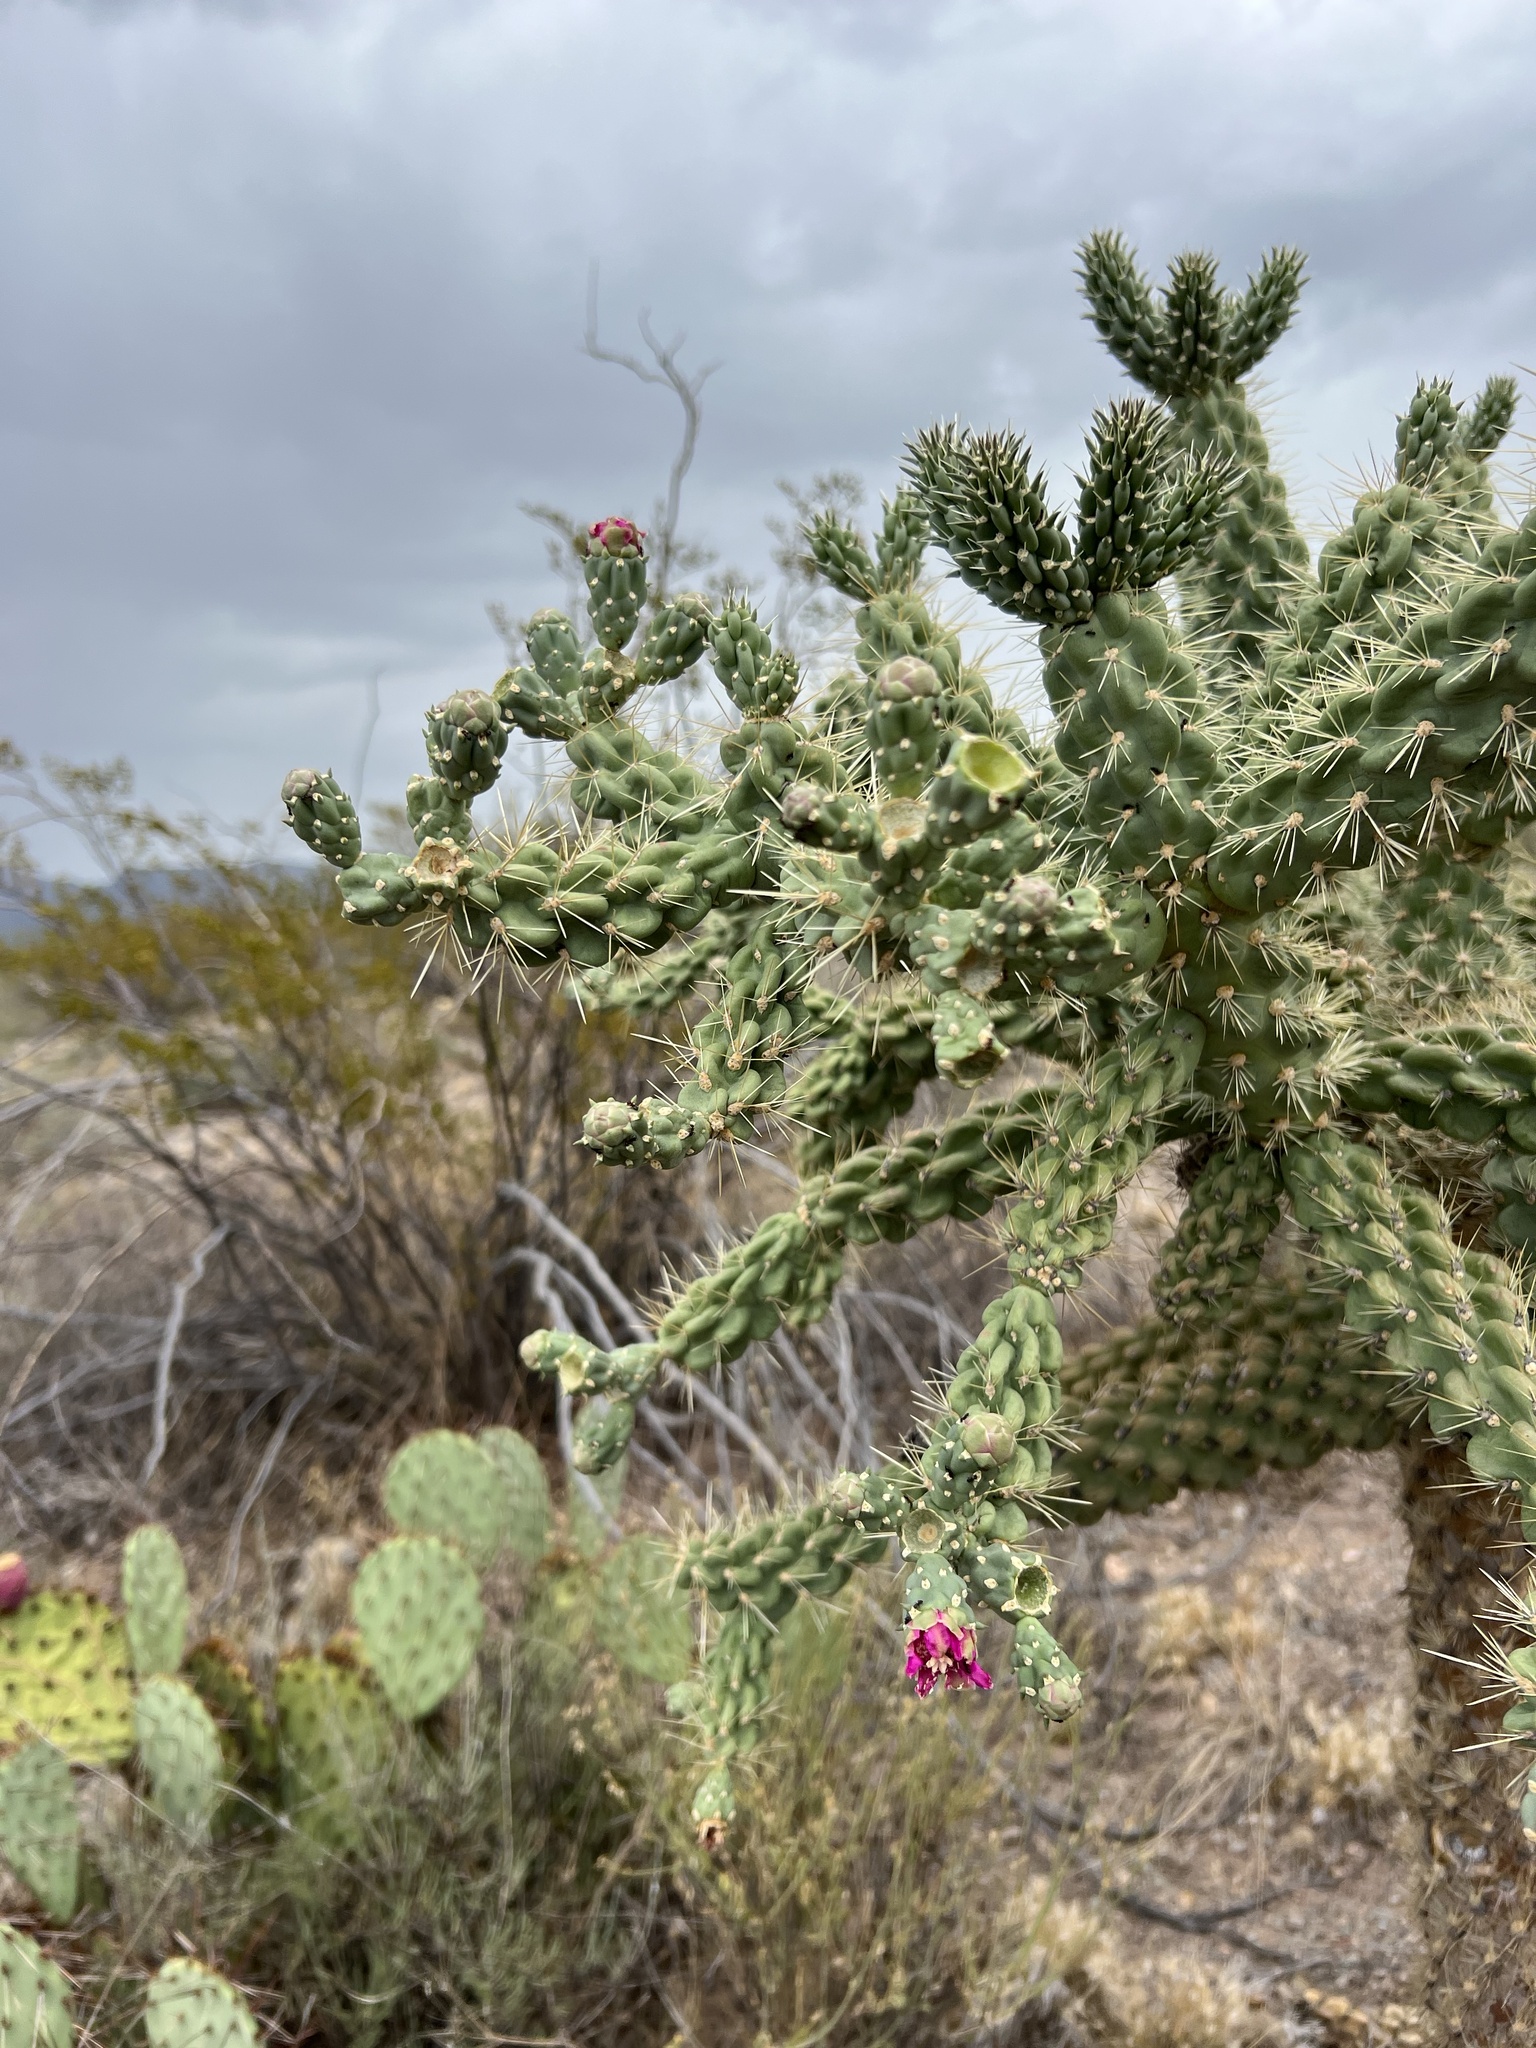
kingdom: Plantae
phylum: Tracheophyta
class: Magnoliopsida
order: Caryophyllales
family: Cactaceae
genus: Cylindropuntia
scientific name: Cylindropuntia fulgida
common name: Jumping cholla
